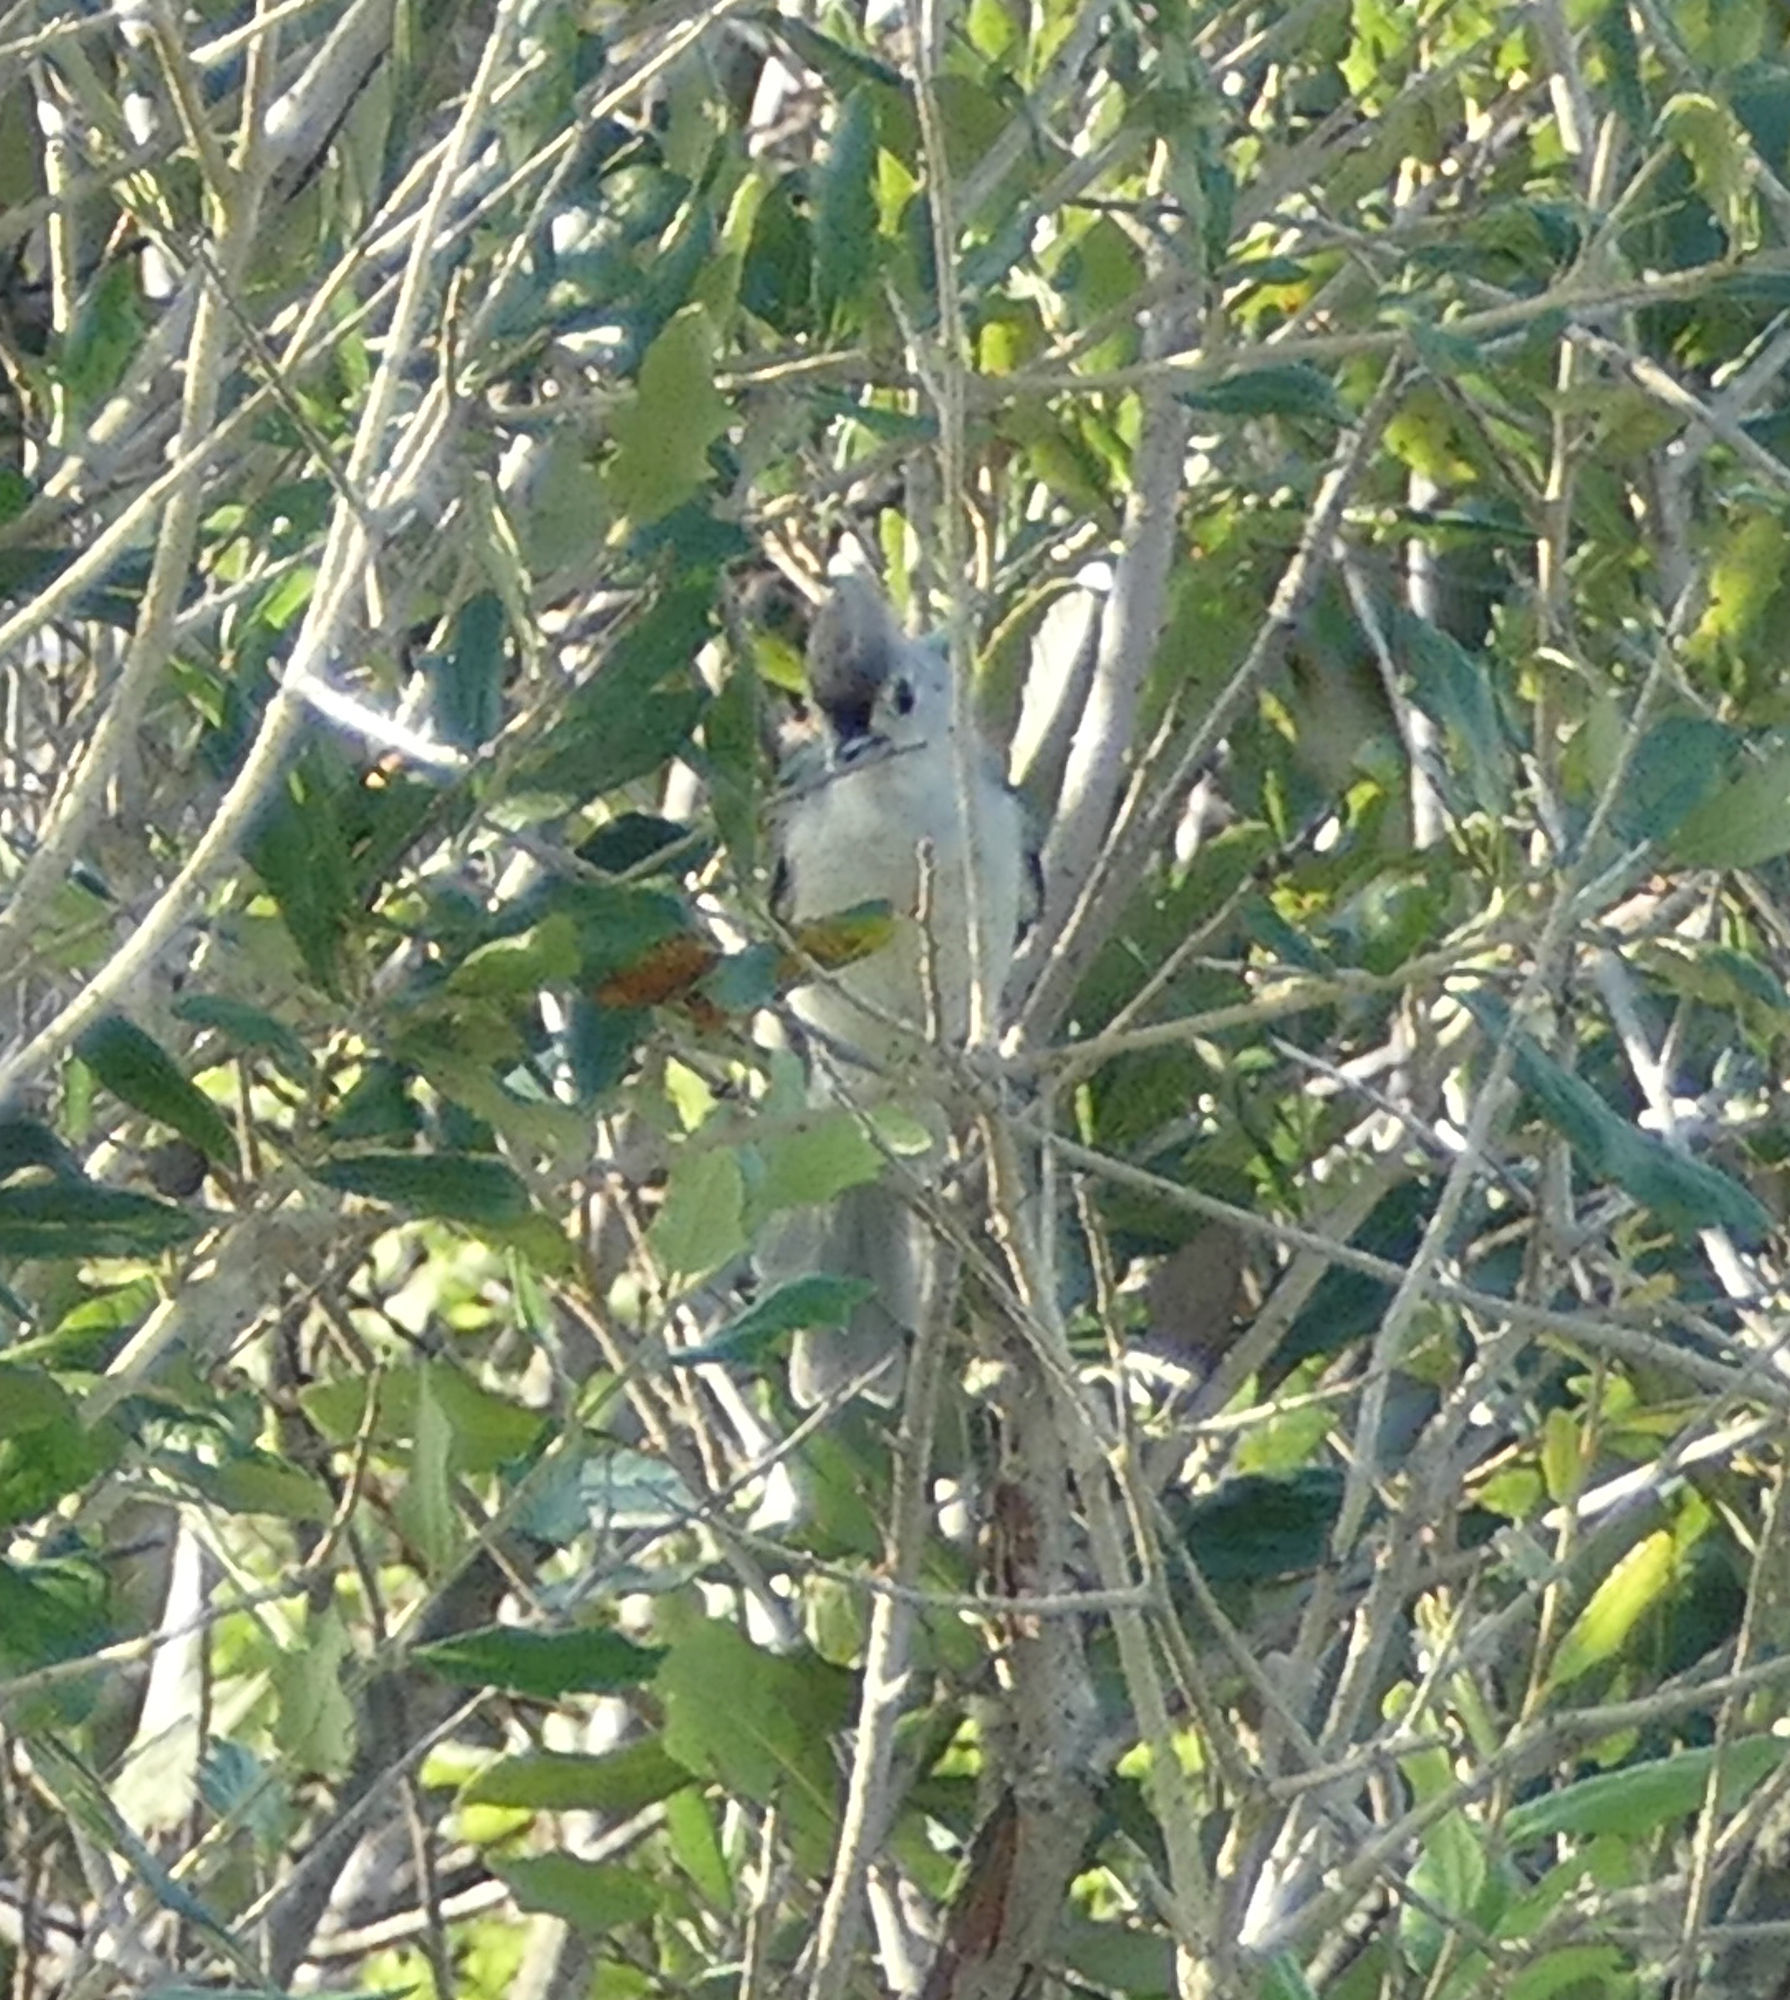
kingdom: Animalia
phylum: Chordata
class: Aves
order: Passeriformes
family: Paridae
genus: Baeolophus
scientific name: Baeolophus bicolor
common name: Tufted titmouse
